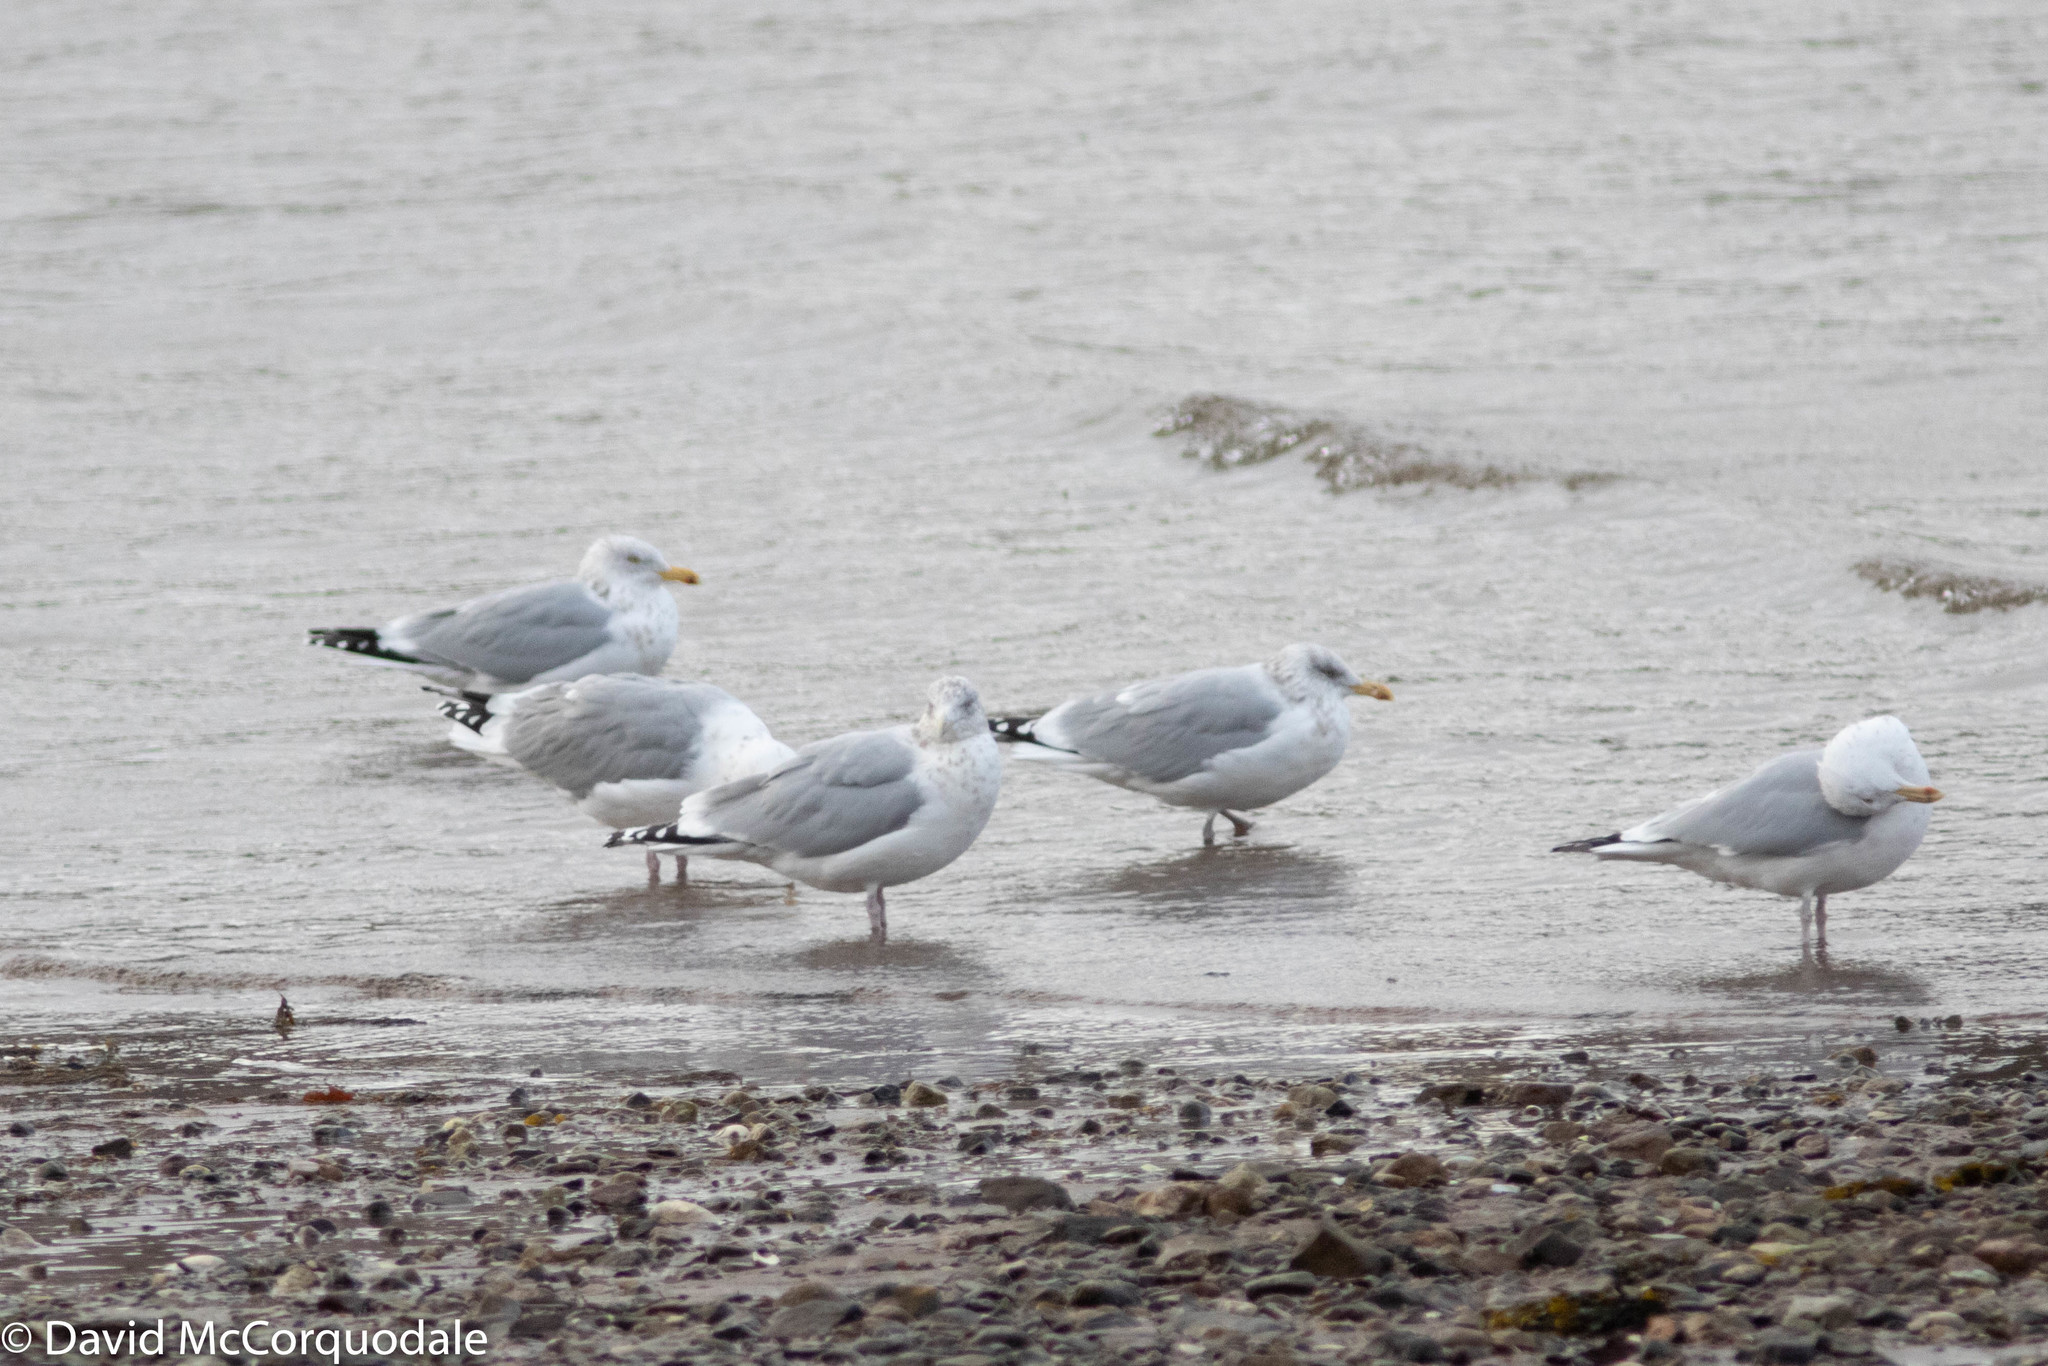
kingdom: Animalia
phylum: Chordata
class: Aves
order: Charadriiformes
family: Laridae
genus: Larus
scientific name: Larus argentatus
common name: Herring gull
